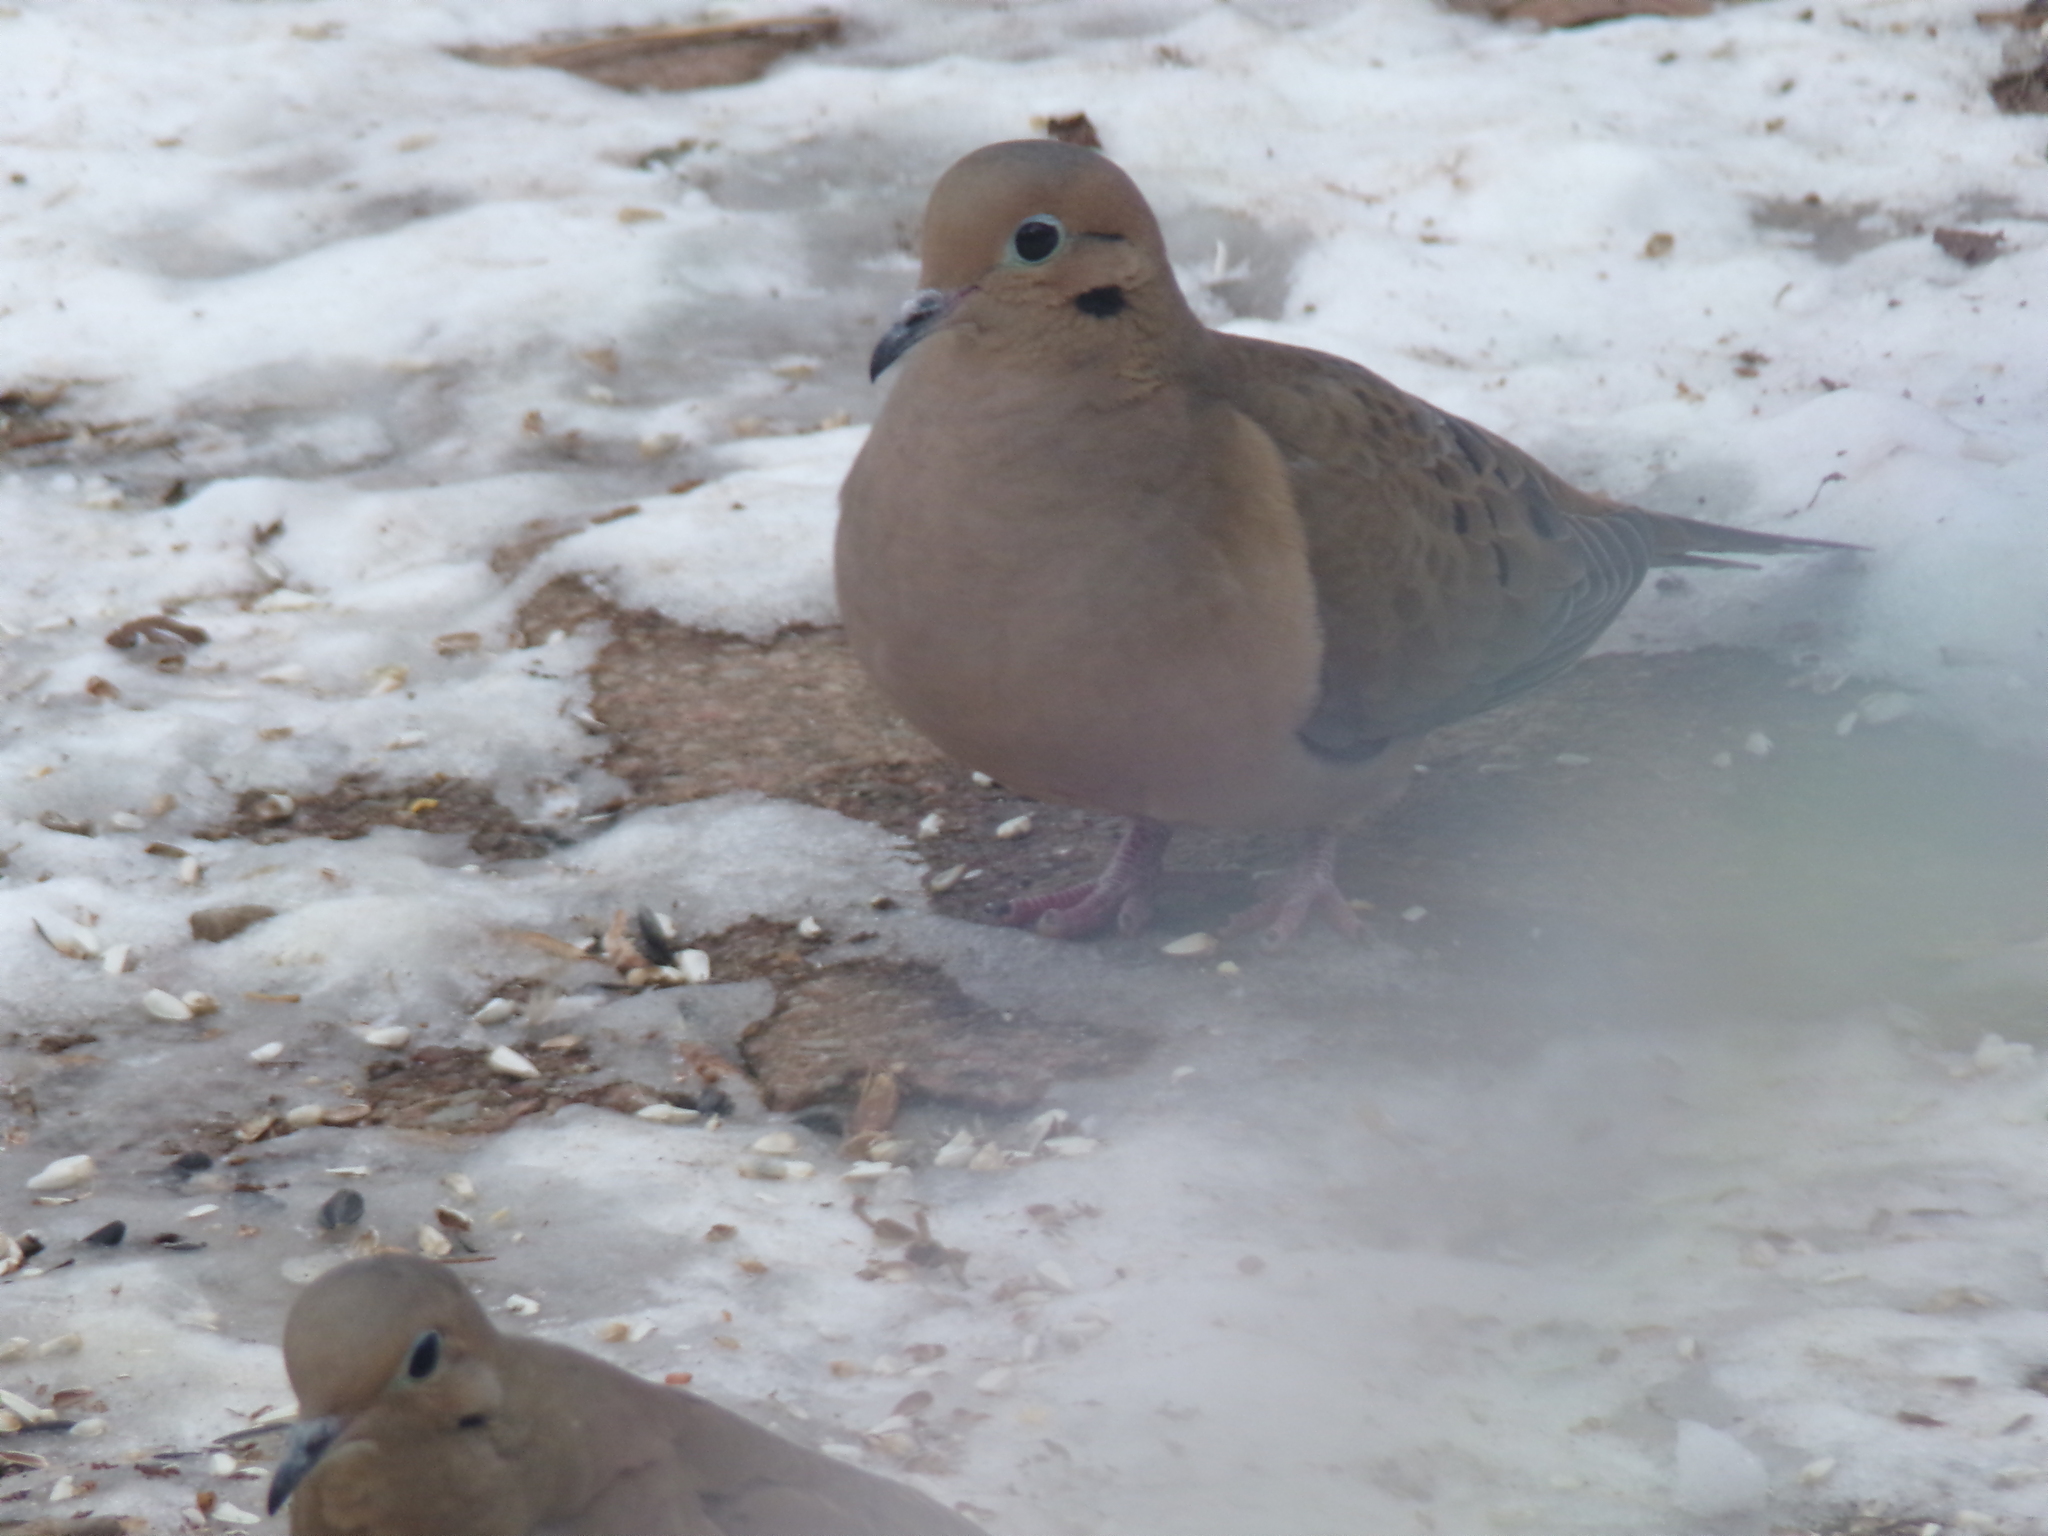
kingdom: Animalia
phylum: Chordata
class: Aves
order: Columbiformes
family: Columbidae
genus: Zenaida
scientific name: Zenaida macroura
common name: Mourning dove
